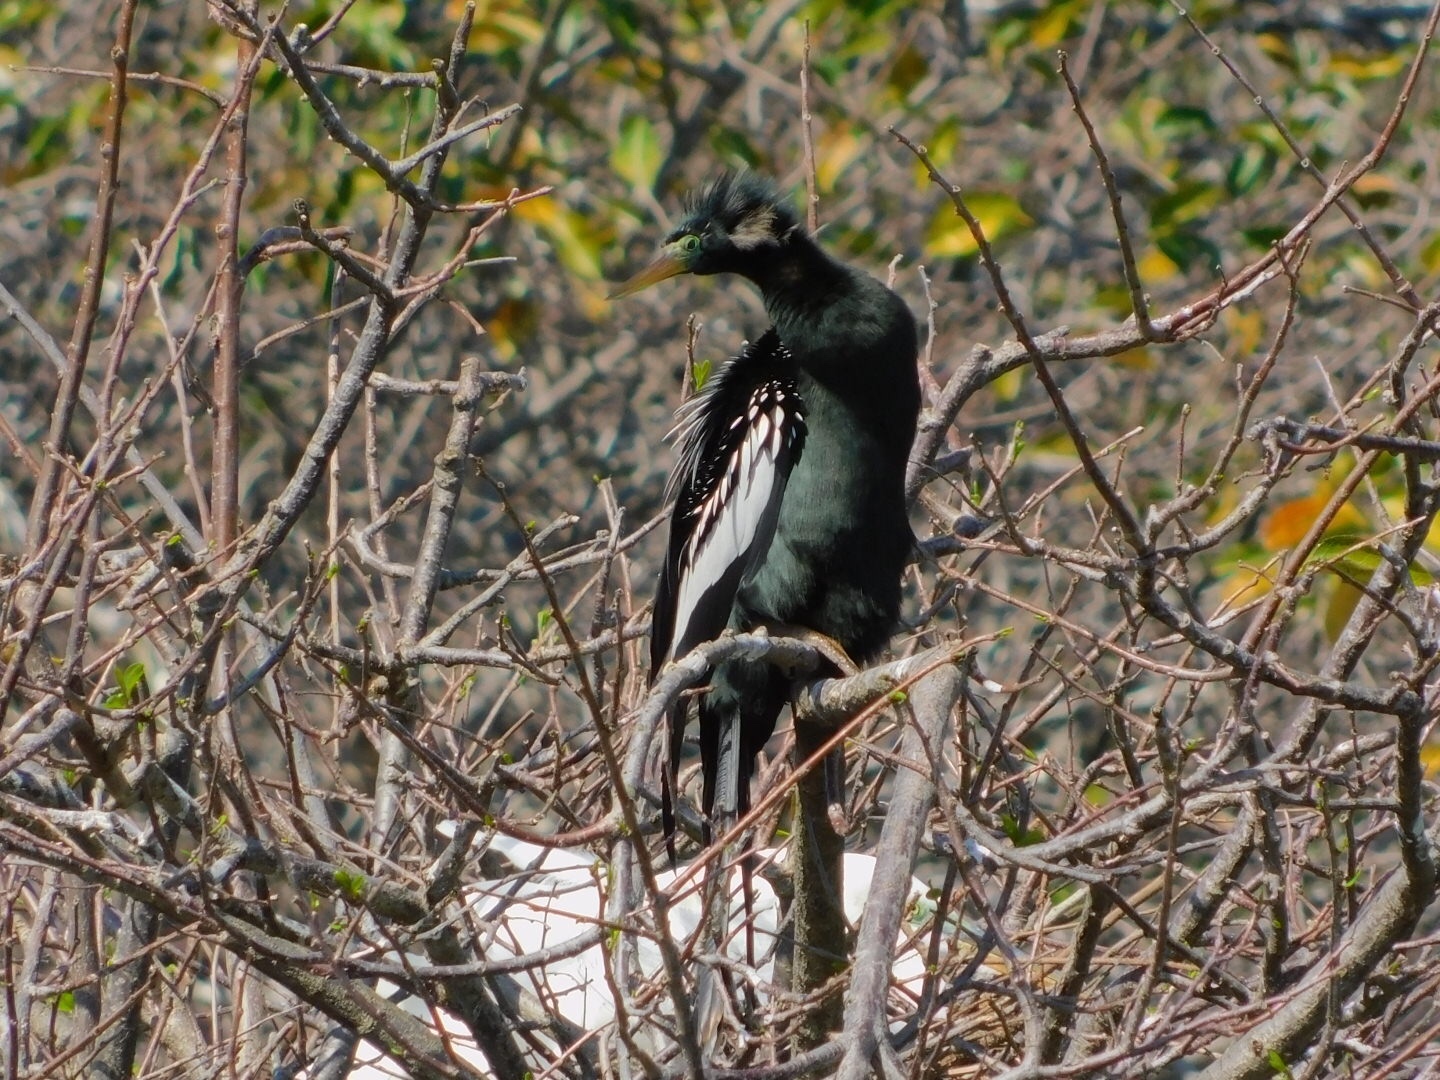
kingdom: Animalia
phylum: Chordata
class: Aves
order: Suliformes
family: Anhingidae
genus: Anhinga
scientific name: Anhinga anhinga
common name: Anhinga
